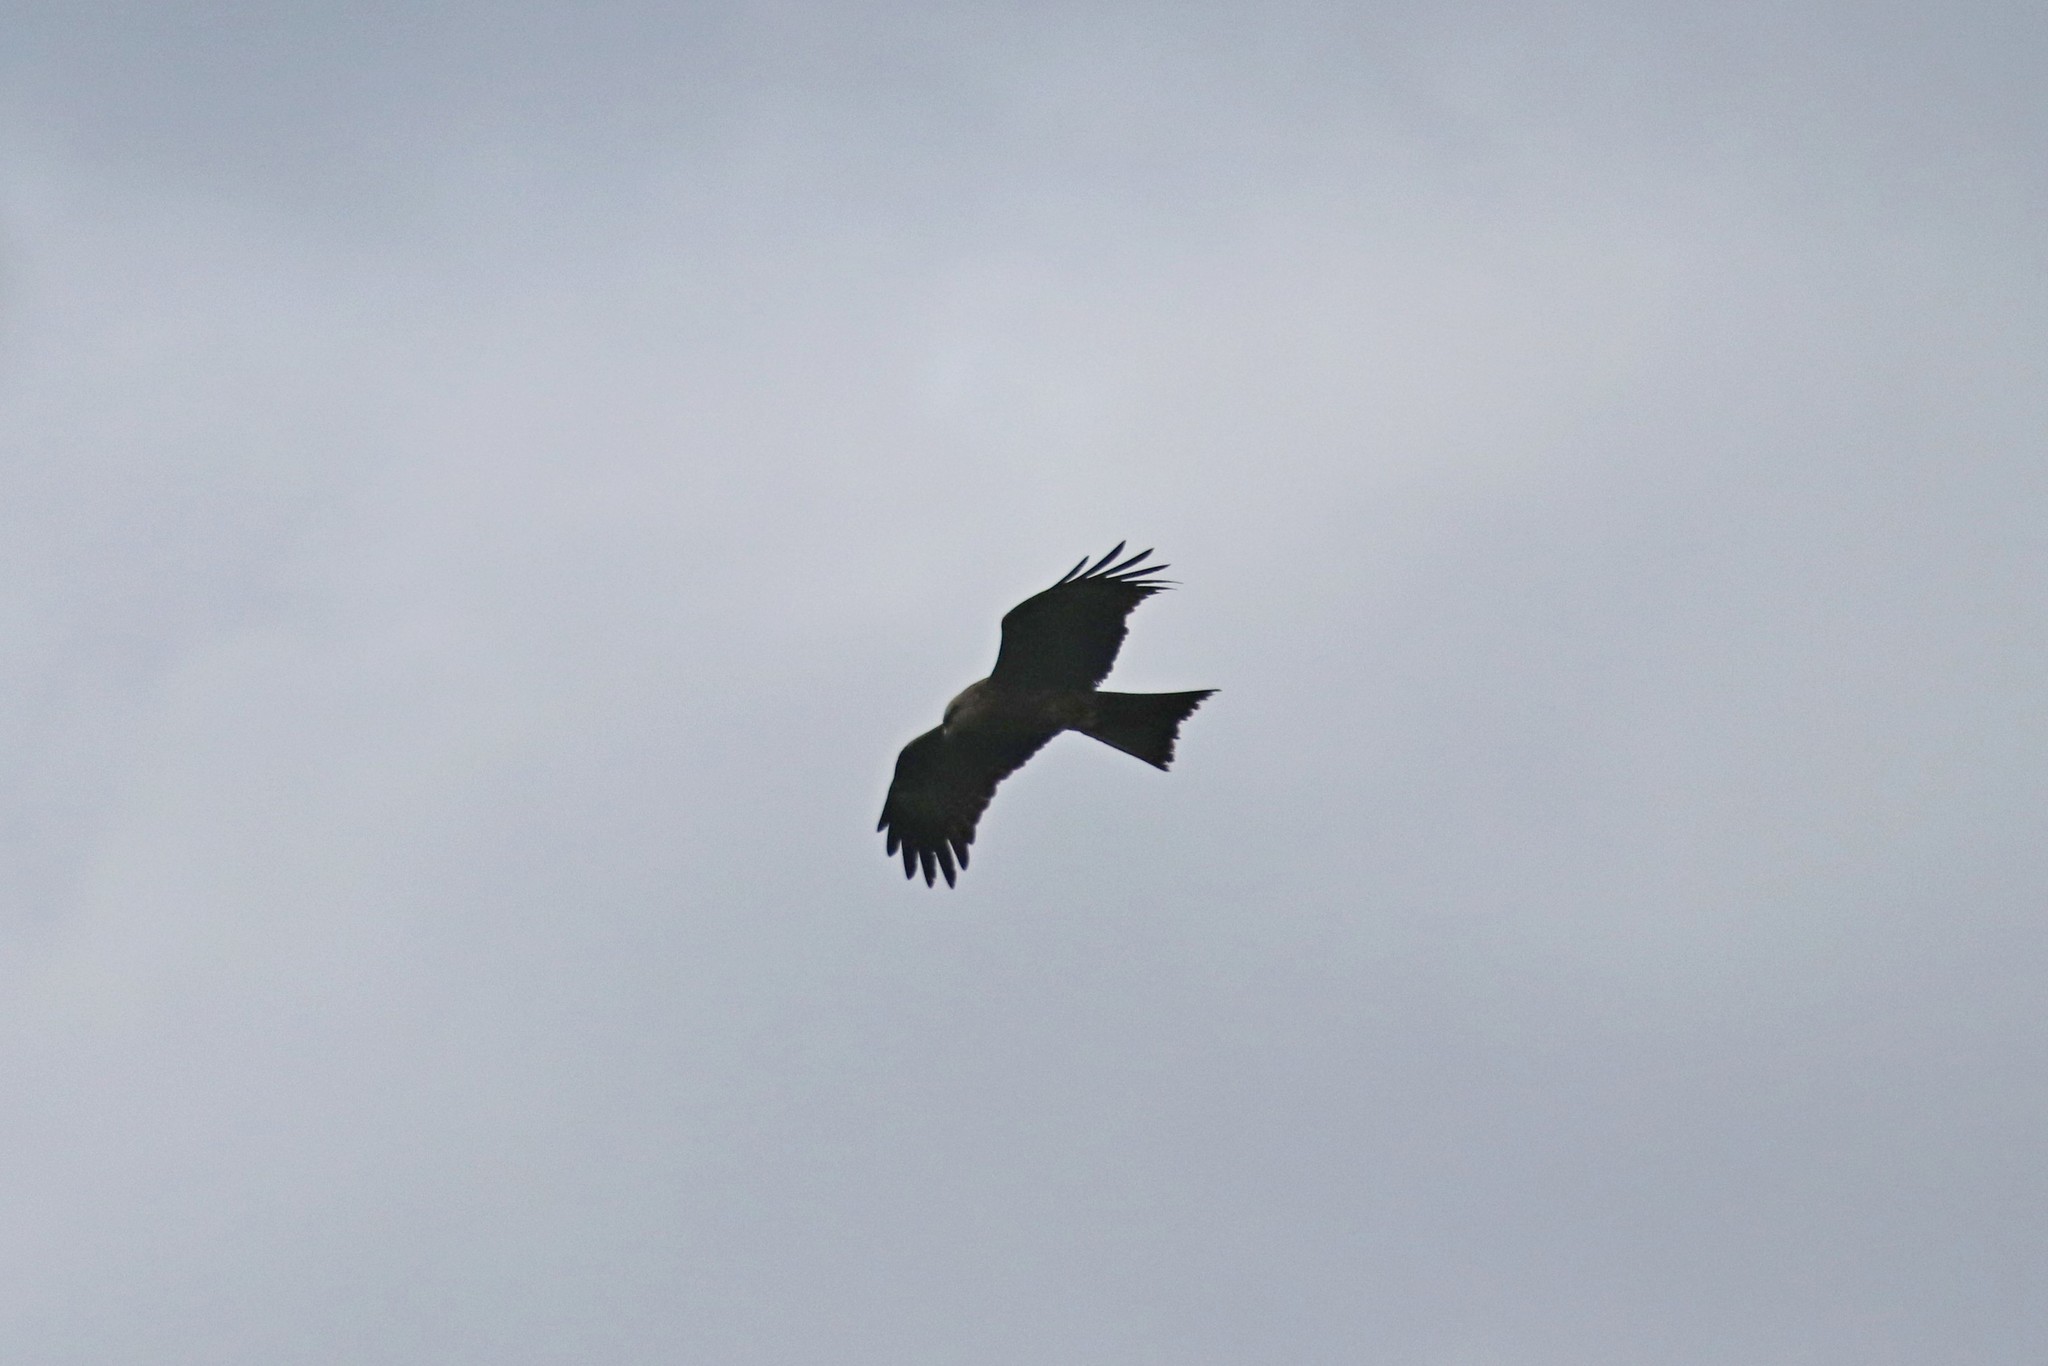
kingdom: Animalia
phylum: Chordata
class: Aves
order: Accipitriformes
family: Accipitridae
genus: Milvus
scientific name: Milvus migrans
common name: Black kite
